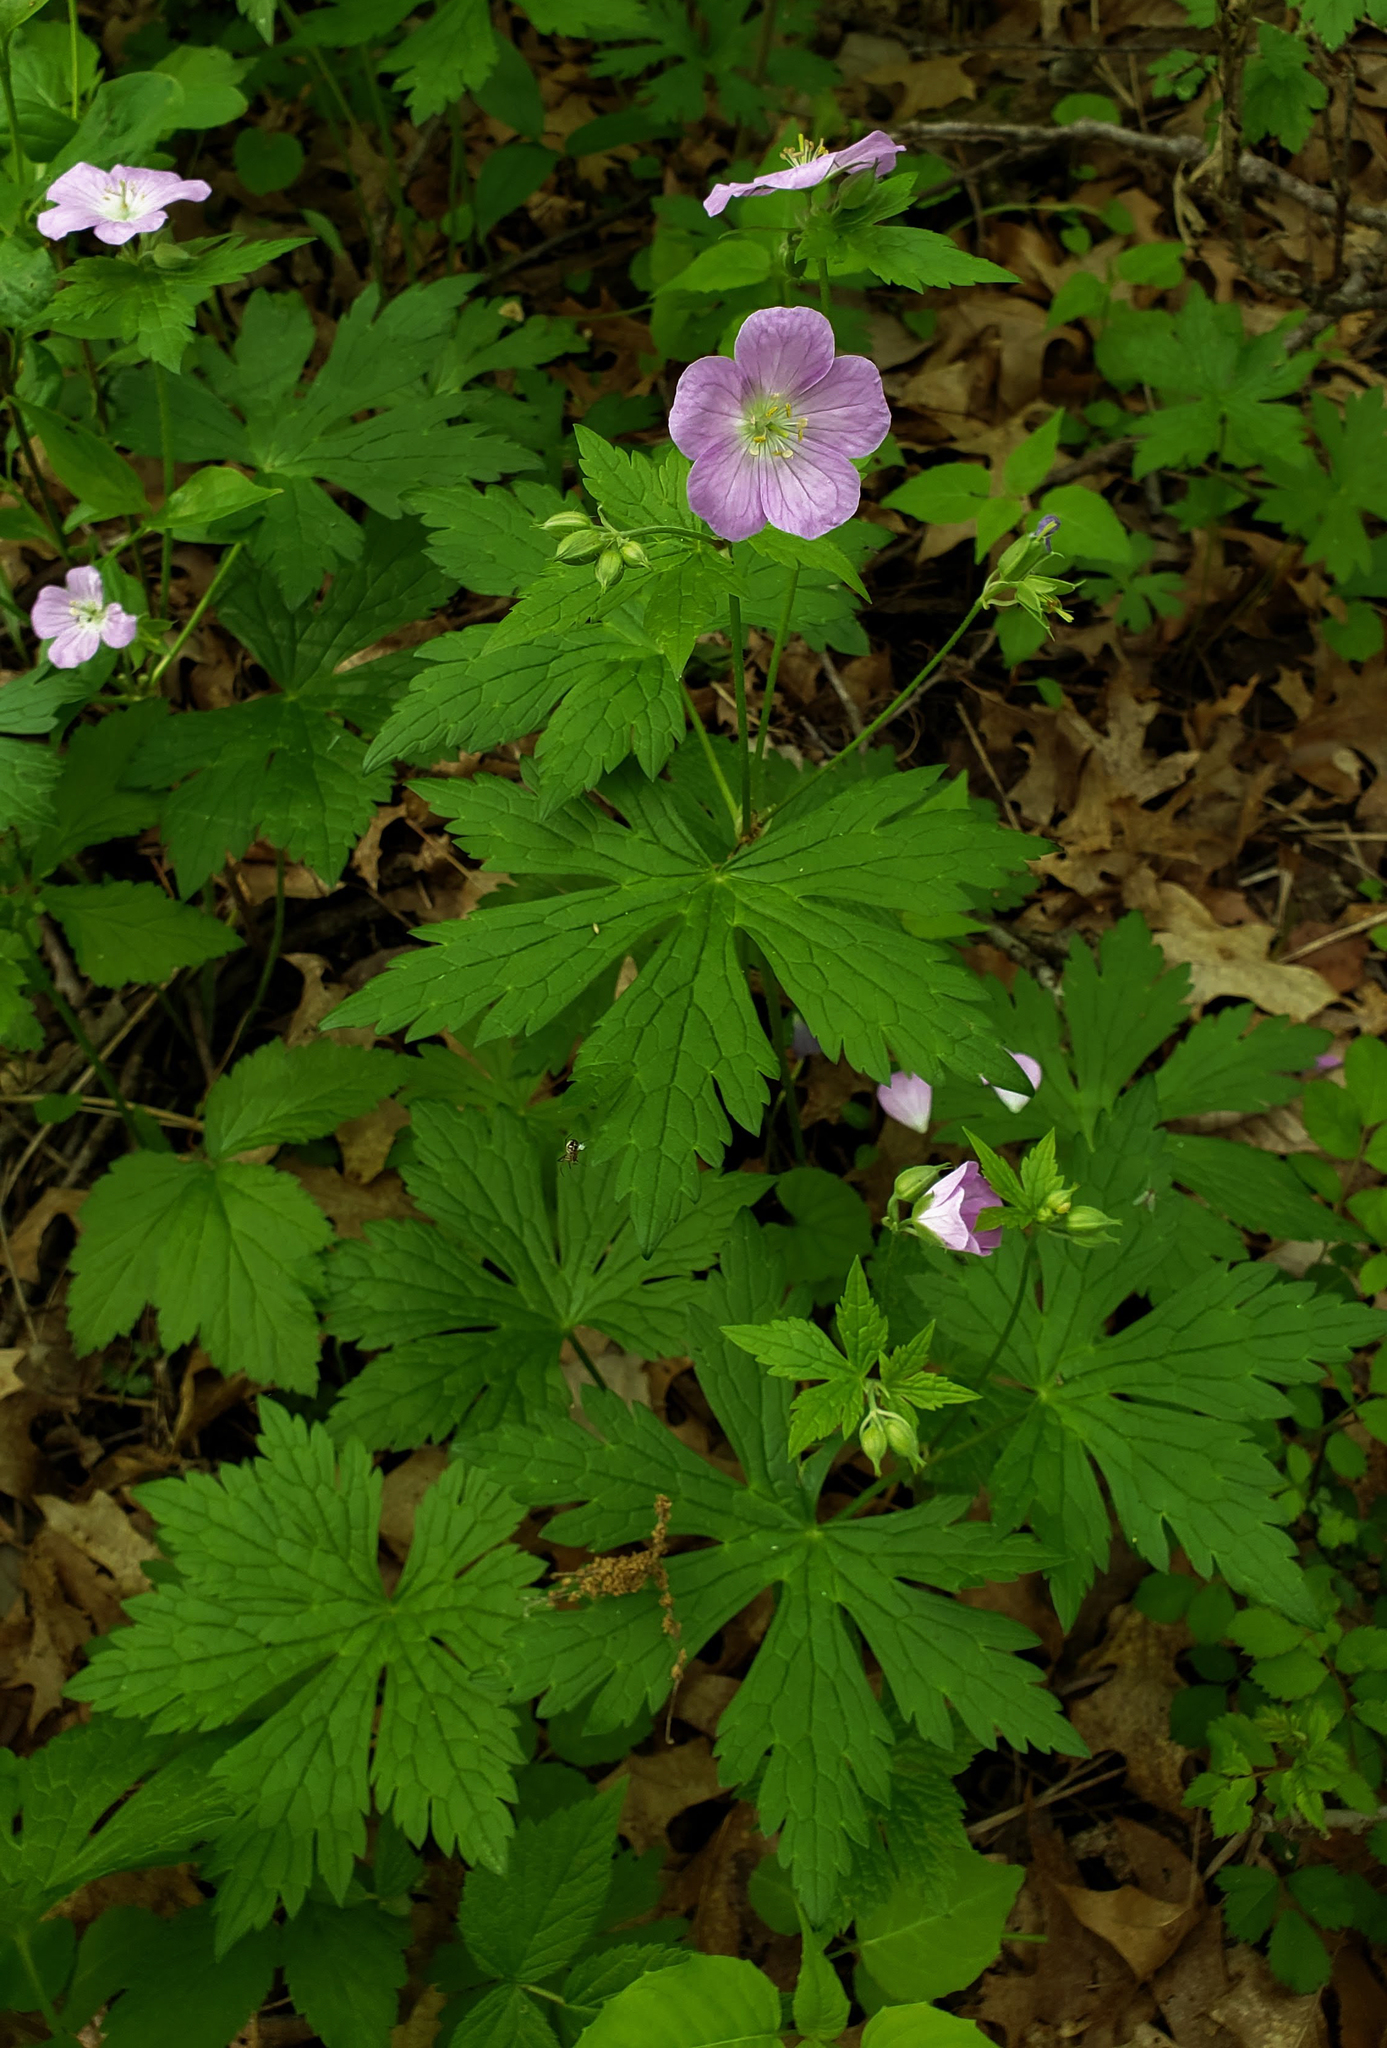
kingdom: Plantae
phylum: Tracheophyta
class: Magnoliopsida
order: Geraniales
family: Geraniaceae
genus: Geranium
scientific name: Geranium maculatum
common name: Spotted geranium
